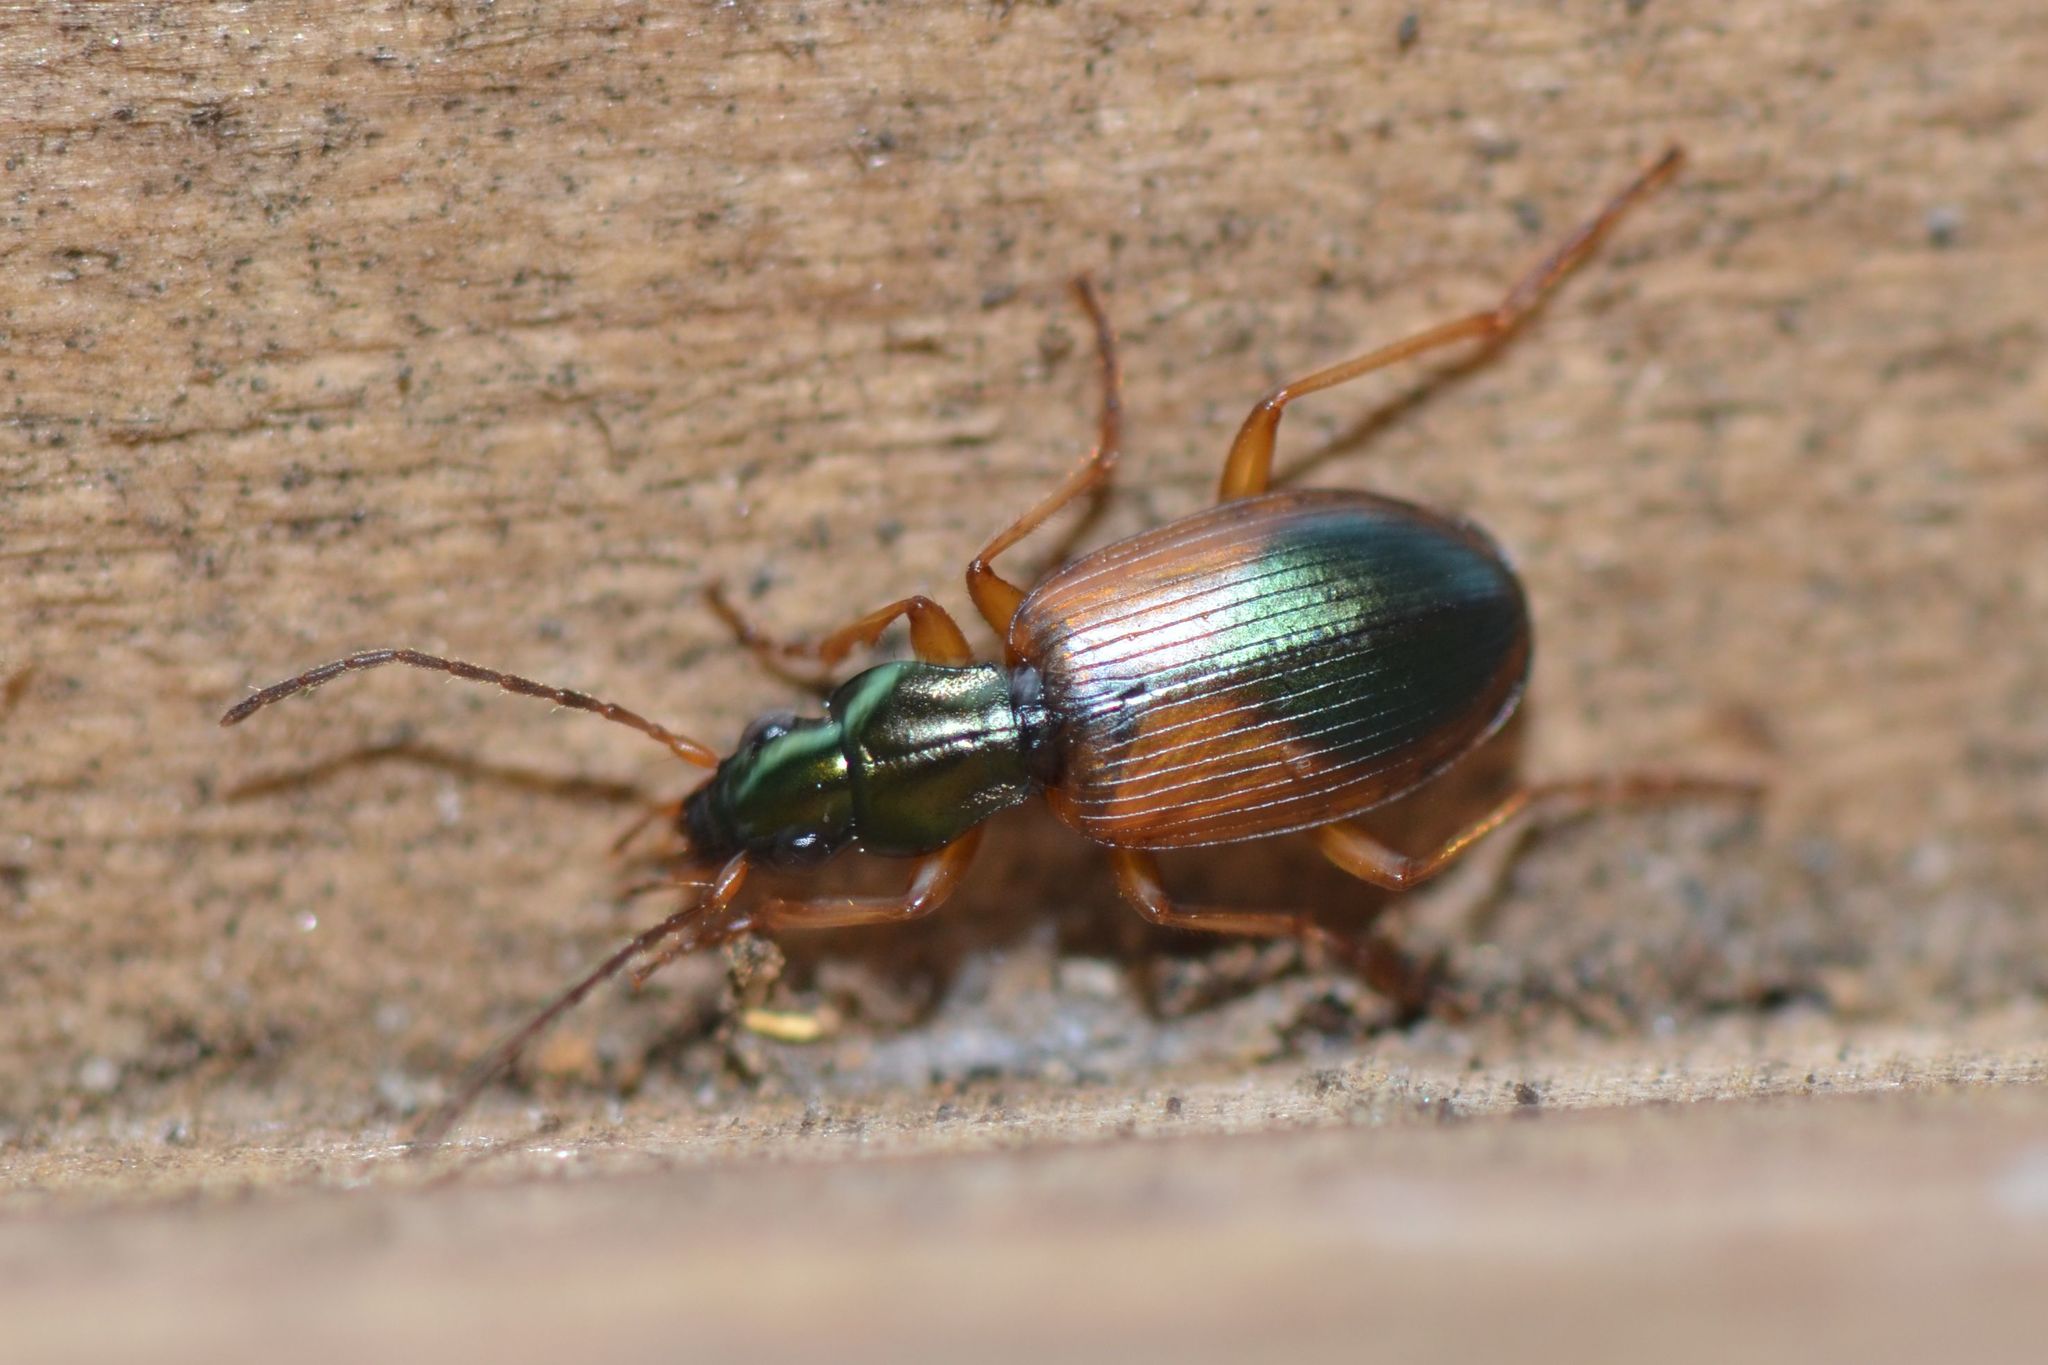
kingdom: Animalia
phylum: Arthropoda
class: Insecta
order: Coleoptera
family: Carabidae
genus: Anchomenus
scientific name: Anchomenus dorsalis
